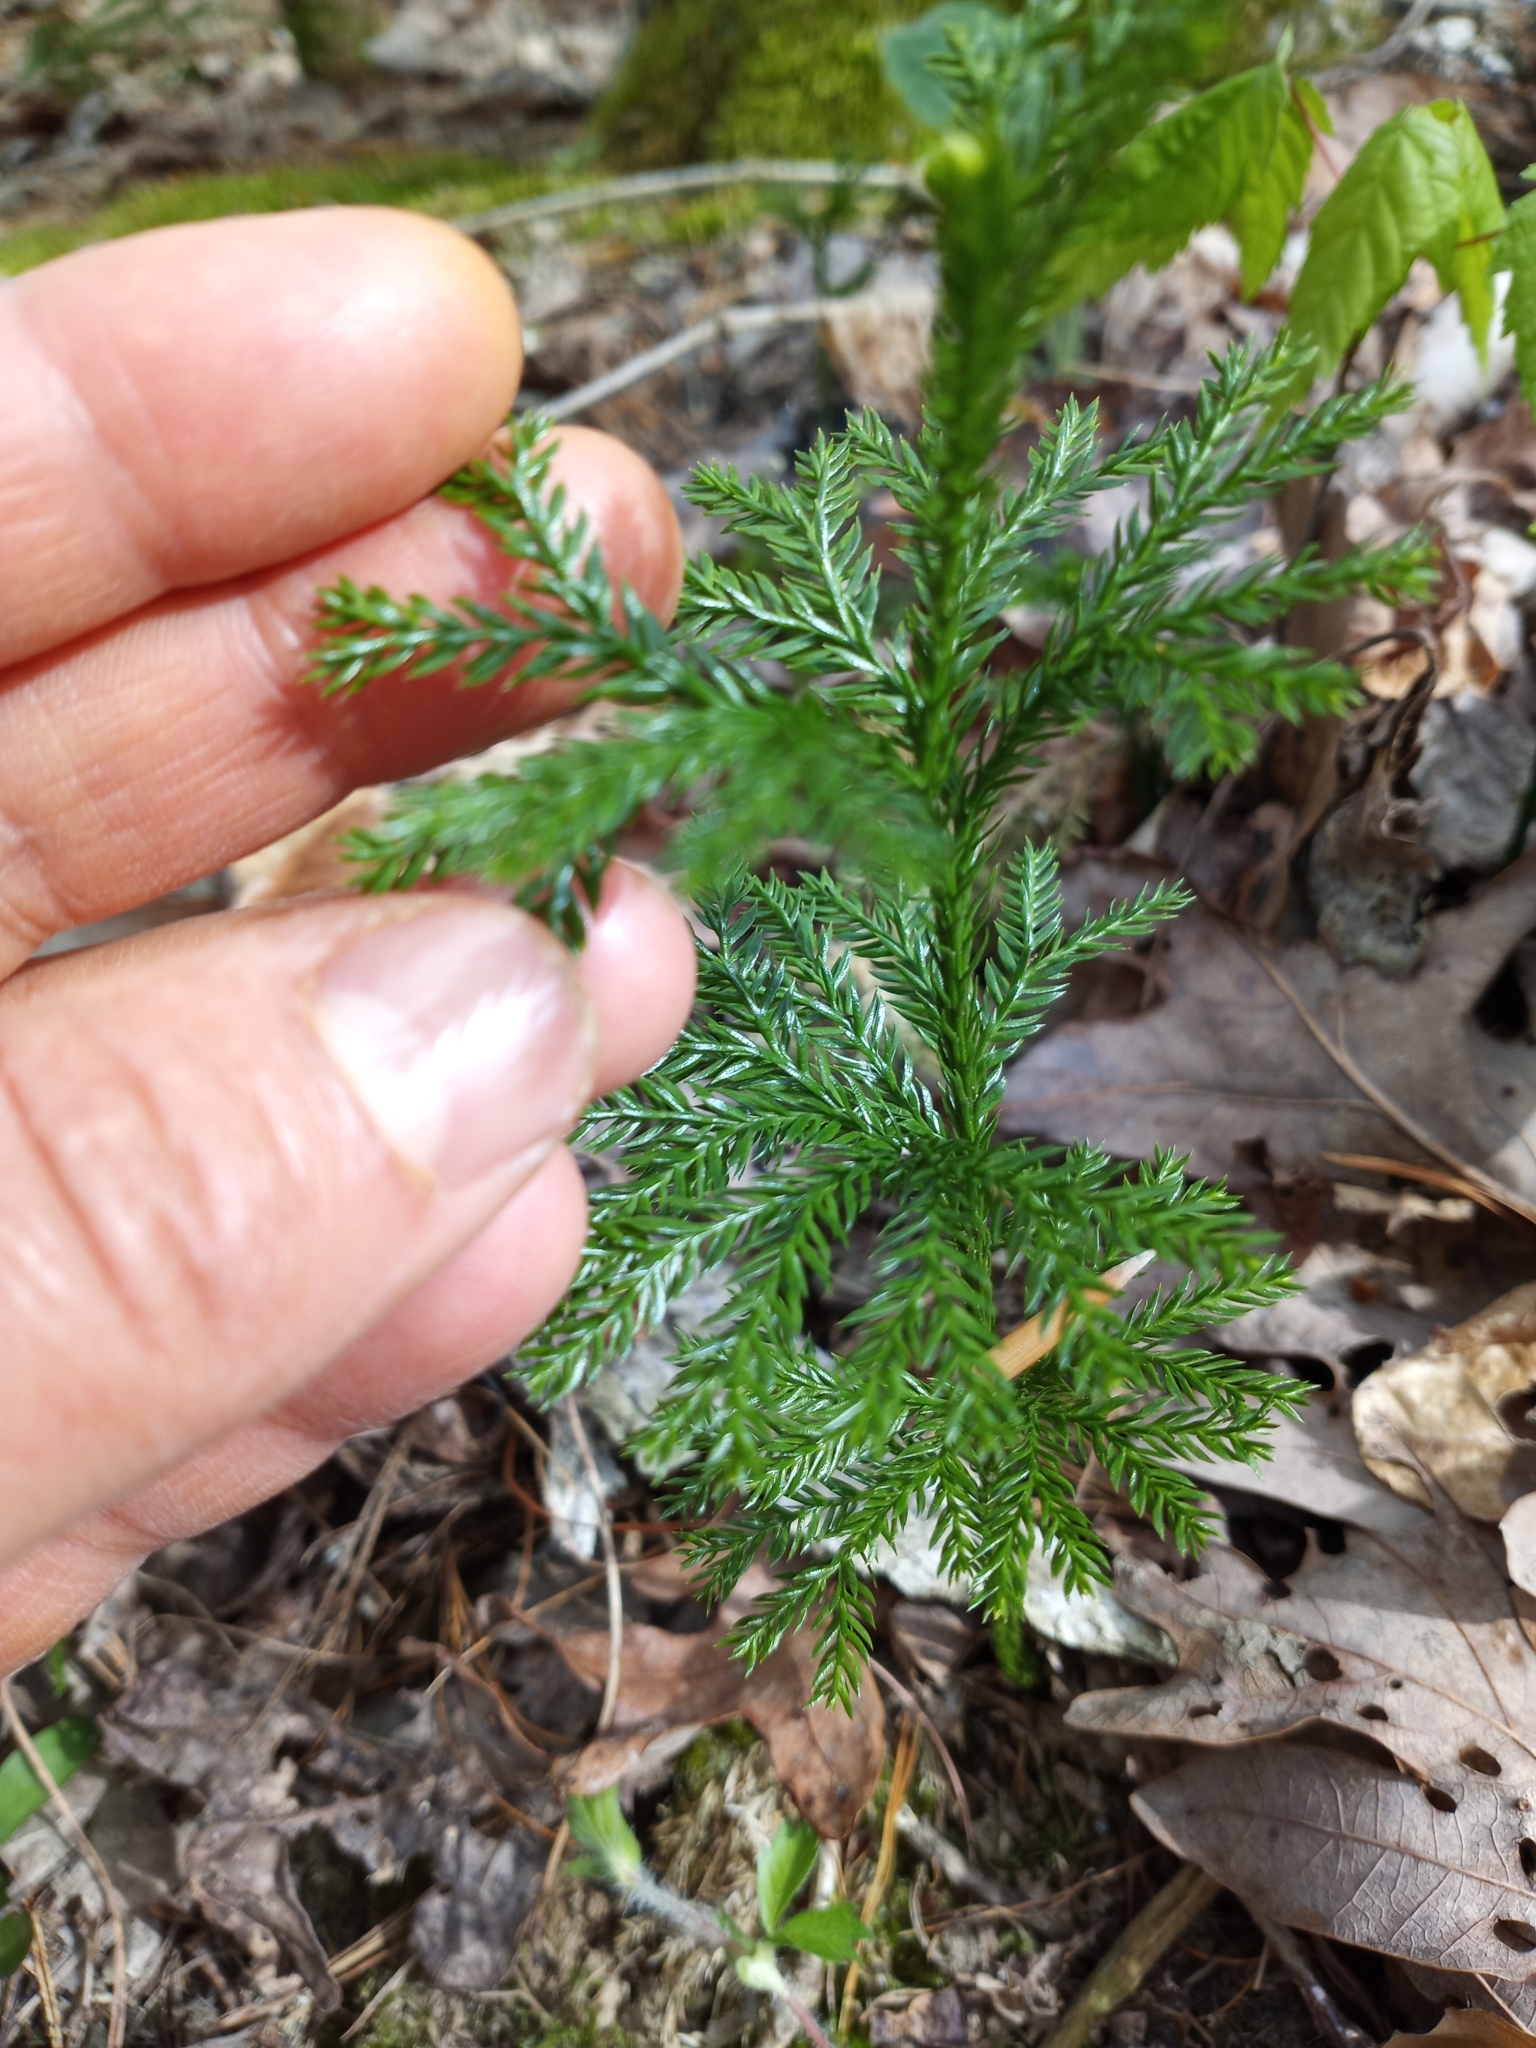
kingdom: Plantae
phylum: Tracheophyta
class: Lycopodiopsida
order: Lycopodiales
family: Lycopodiaceae
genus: Dendrolycopodium
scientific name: Dendrolycopodium obscurum
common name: Common ground-pine
